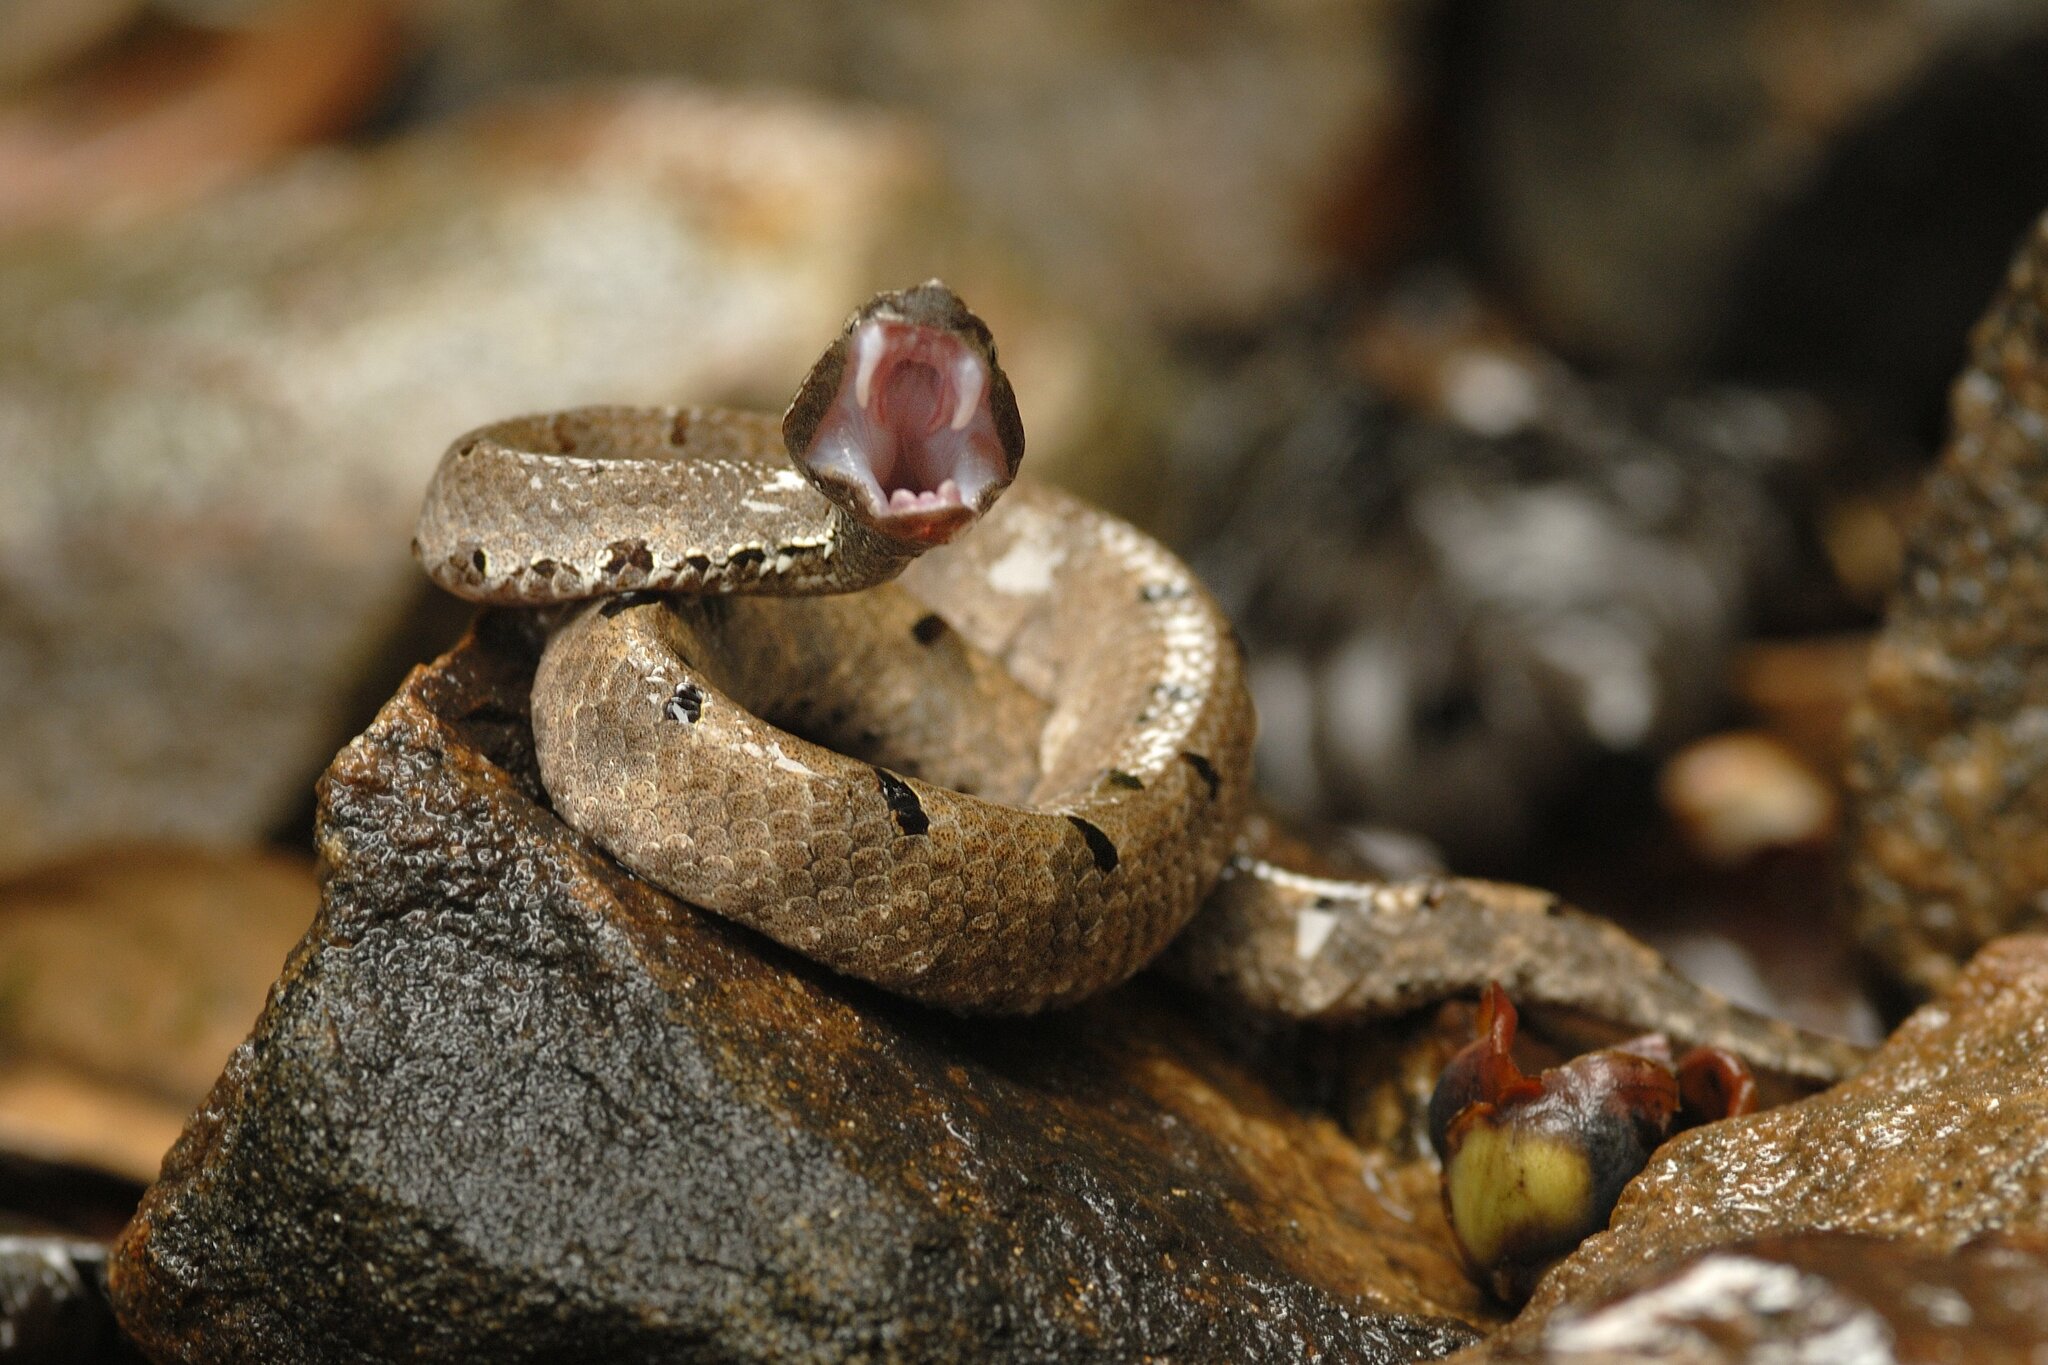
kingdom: Animalia
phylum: Chordata
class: Squamata
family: Viperidae
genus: Hypnale
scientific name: Hypnale hypnale
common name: Hump-nosed moccasin
